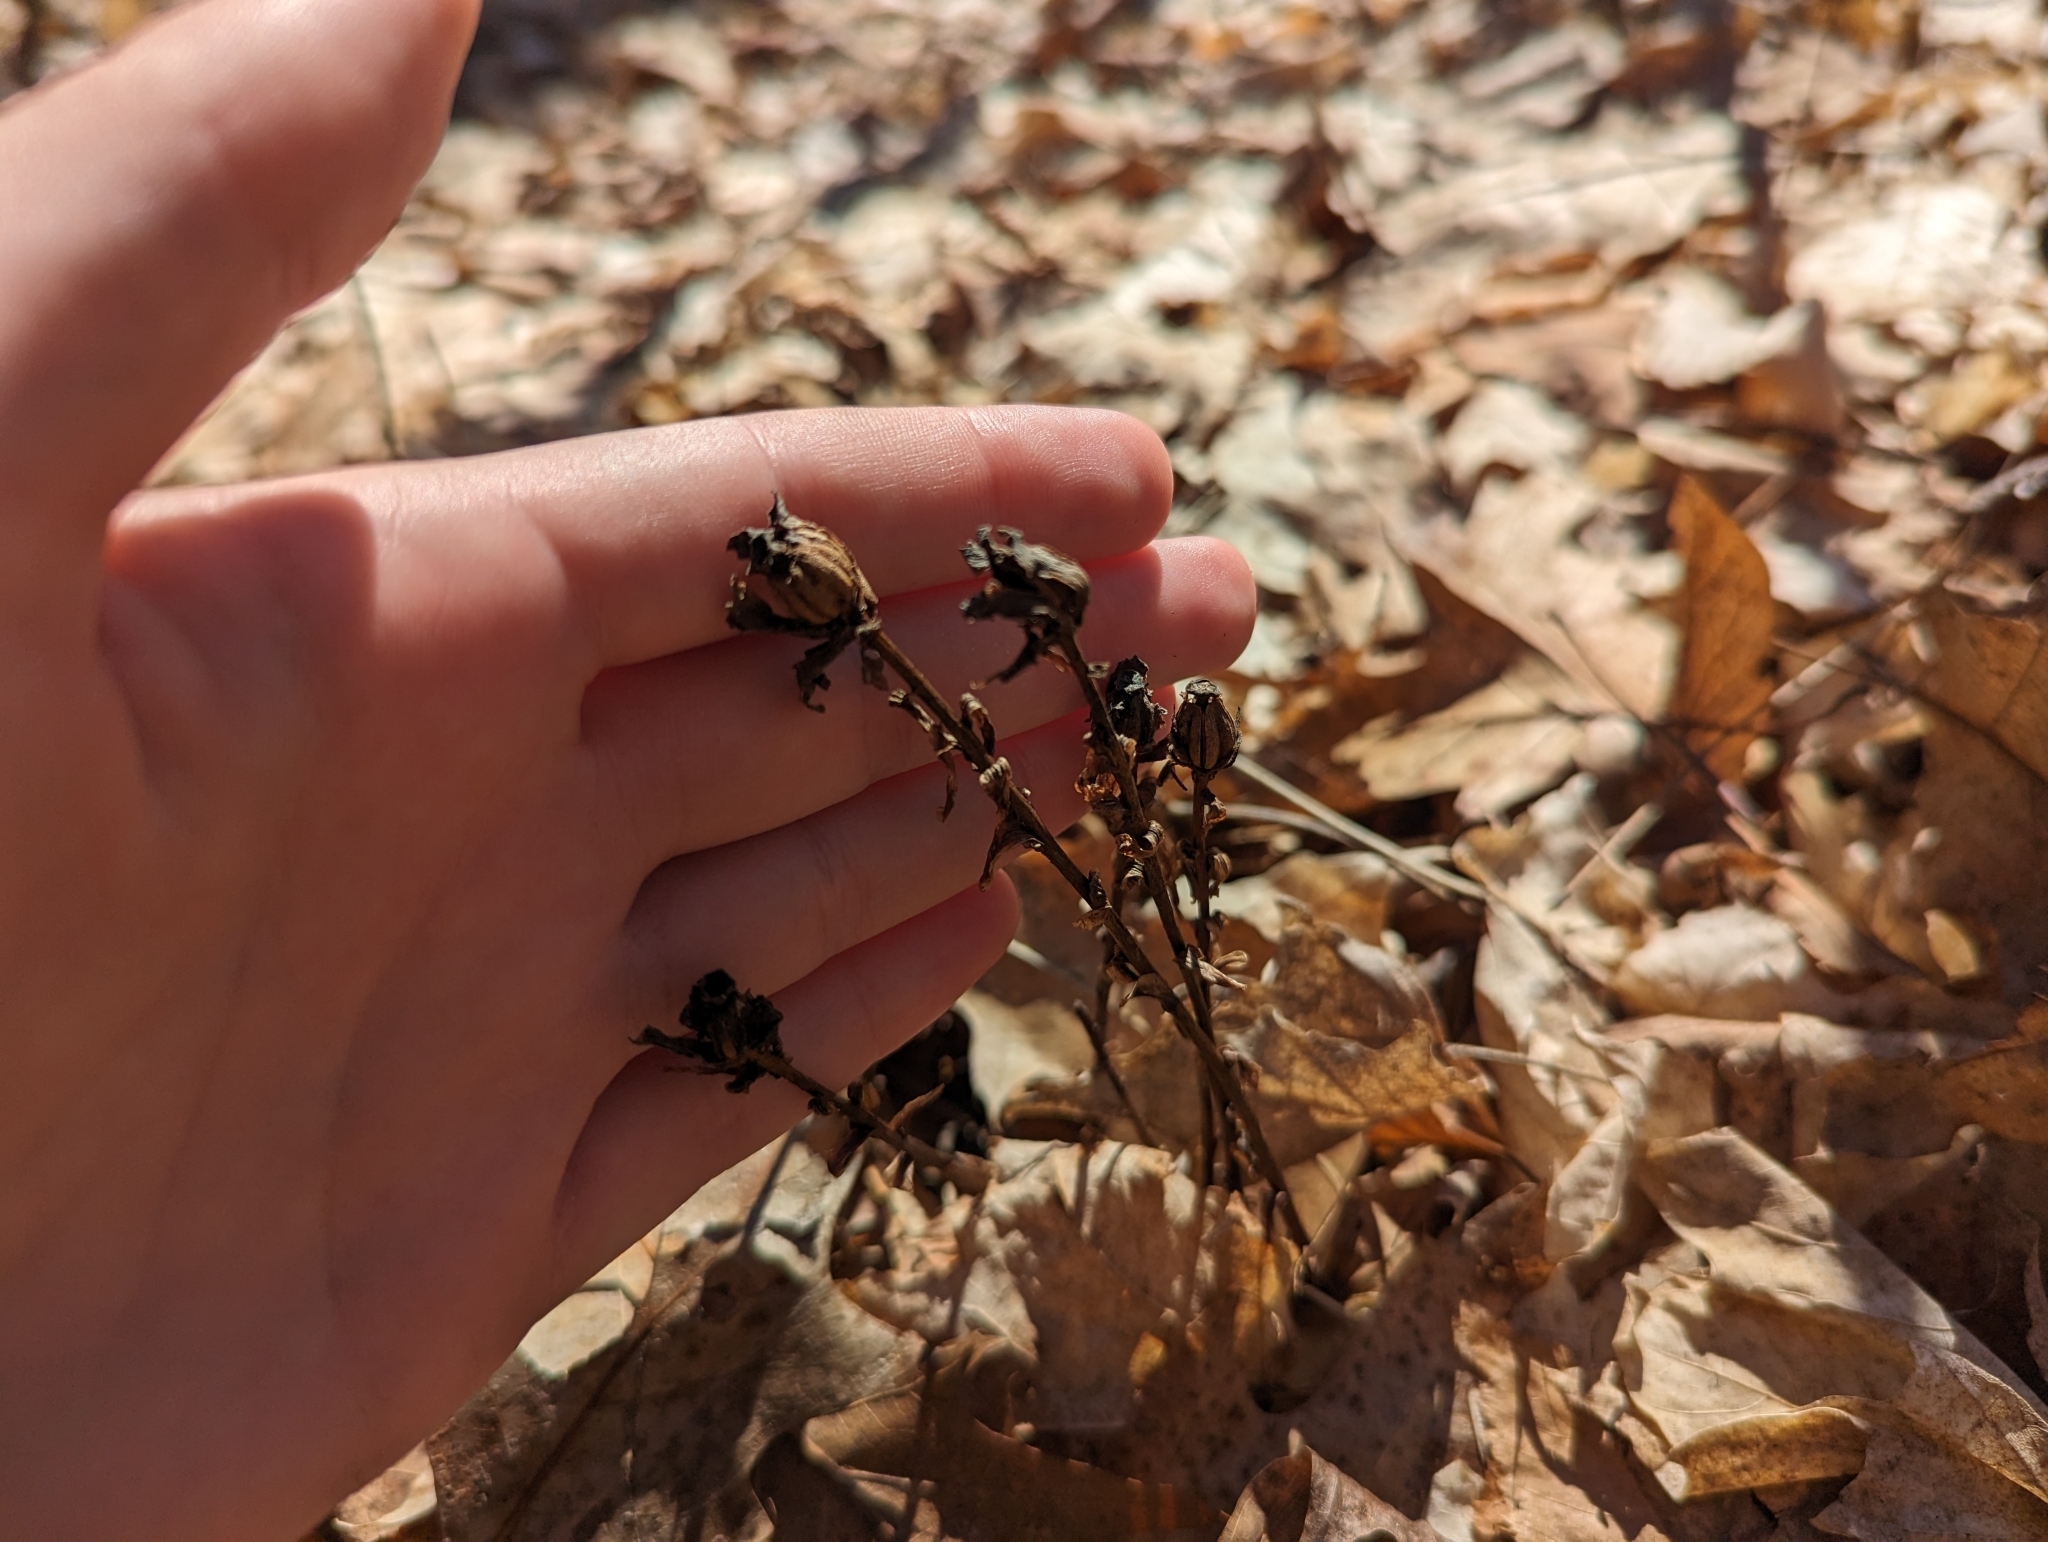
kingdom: Plantae
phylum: Tracheophyta
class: Magnoliopsida
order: Ericales
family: Ericaceae
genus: Monotropa
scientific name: Monotropa uniflora
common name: Convulsion root
